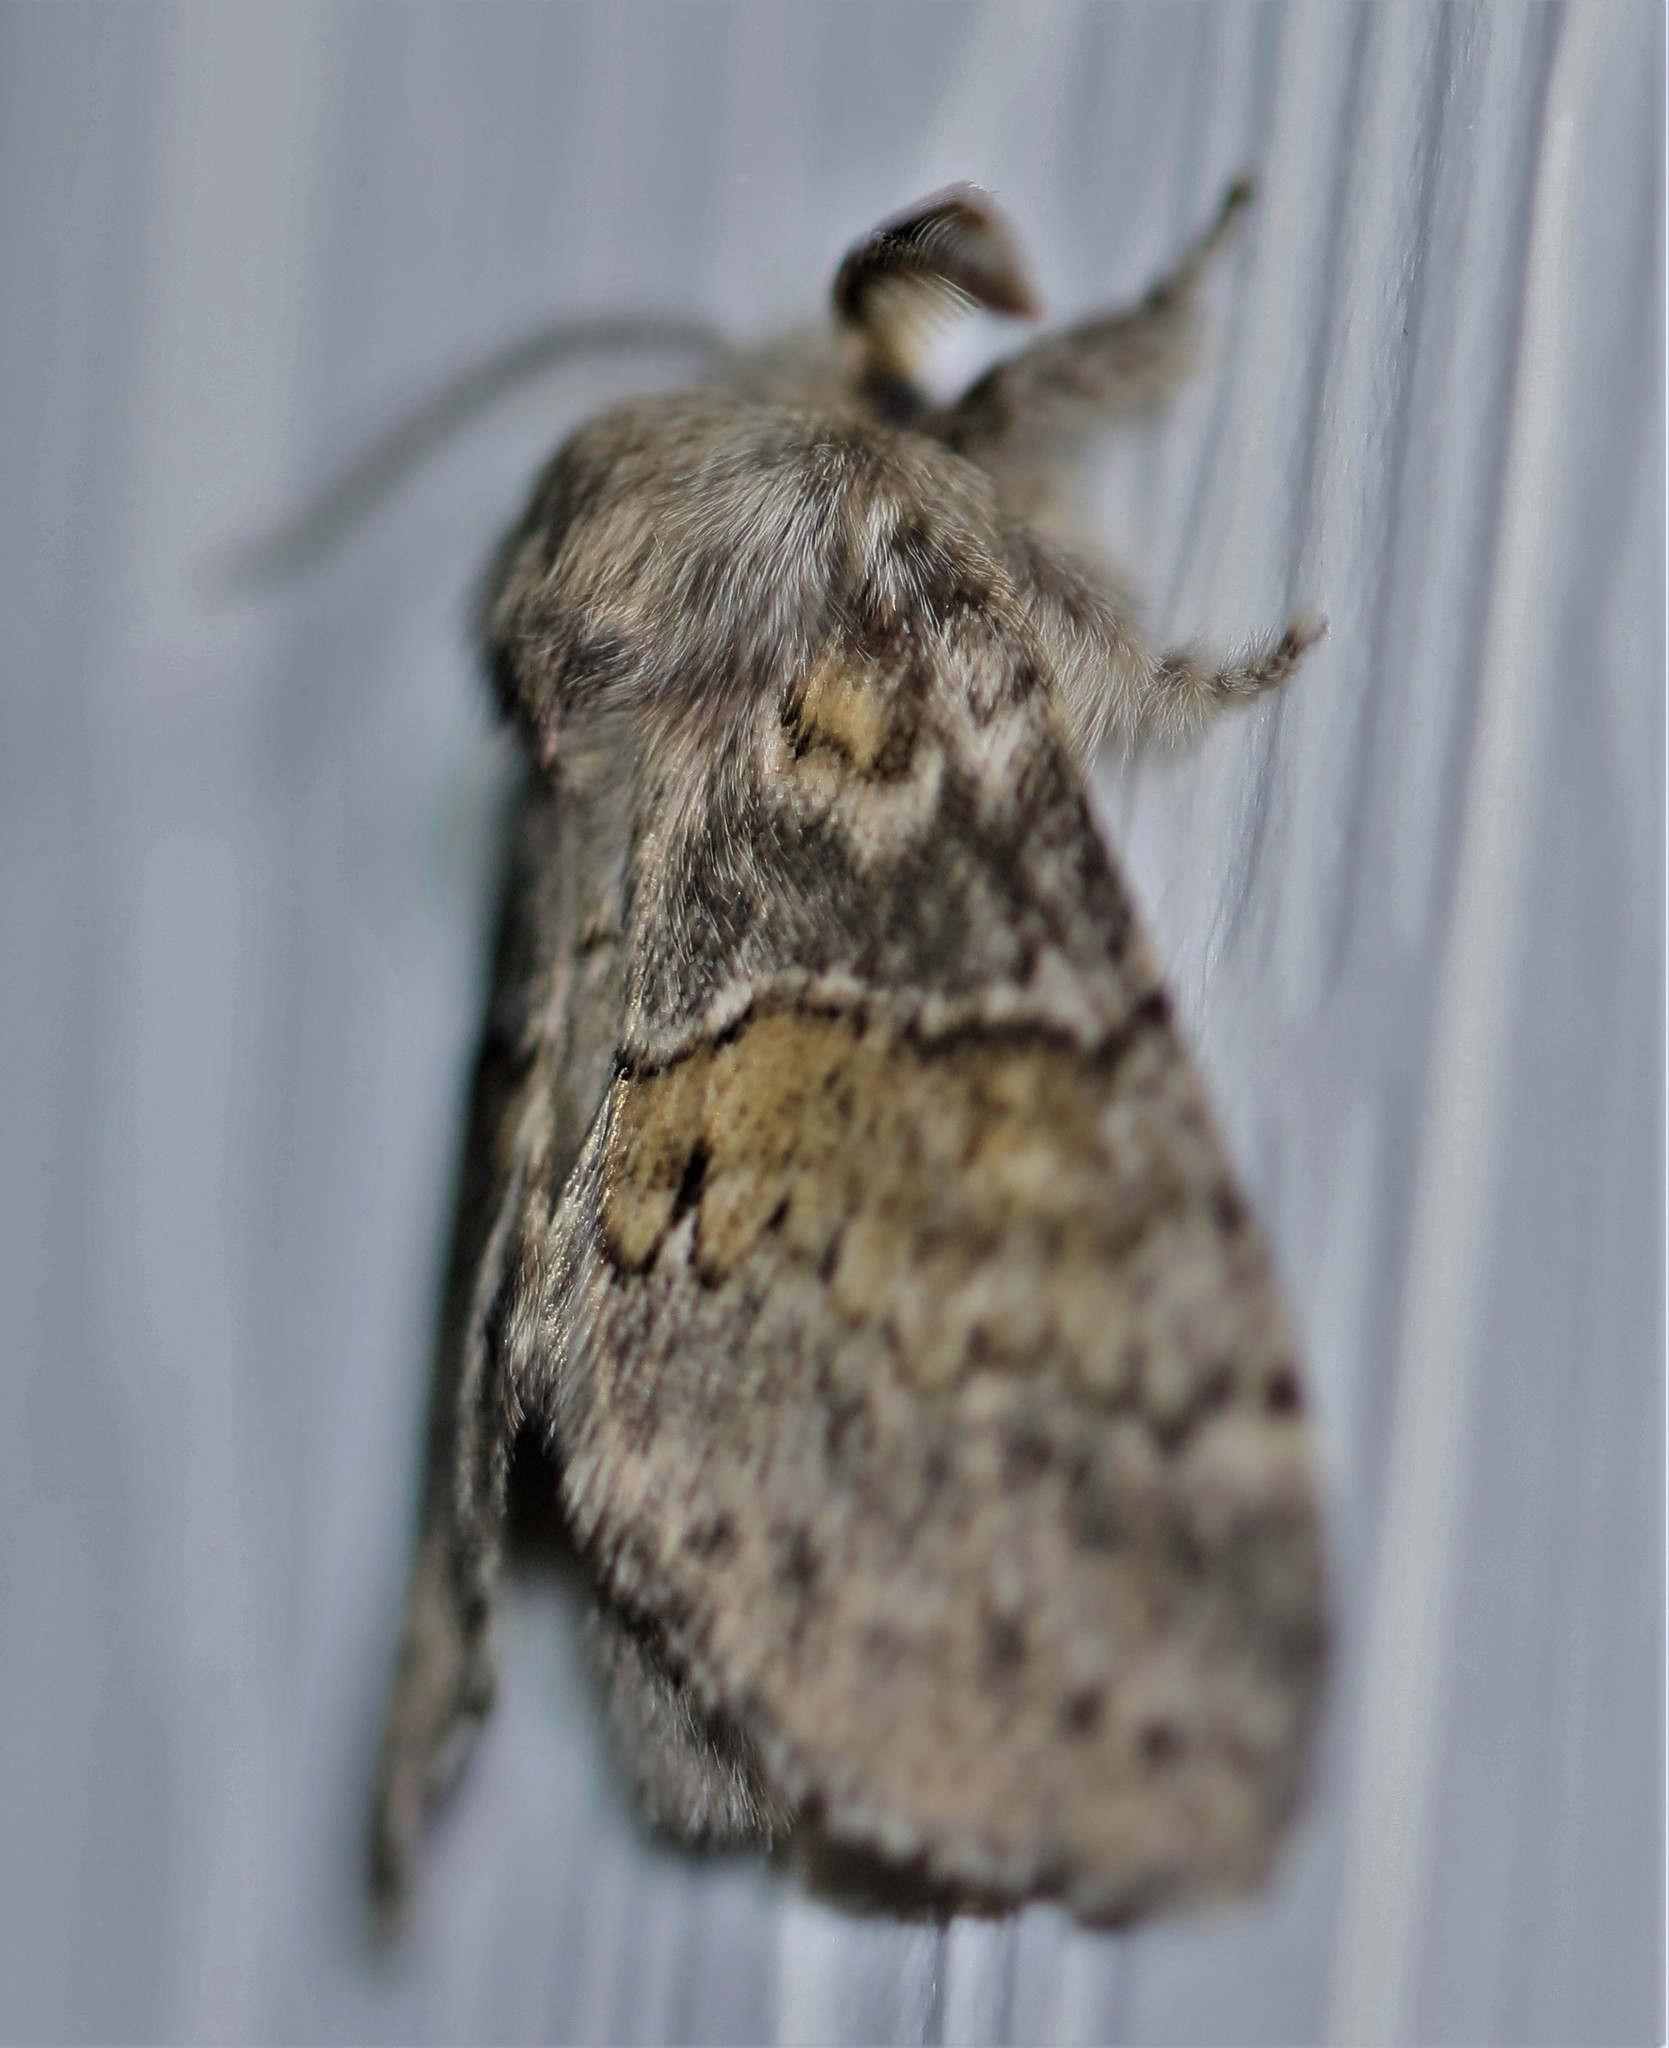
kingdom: Animalia
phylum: Arthropoda
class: Insecta
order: Lepidoptera
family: Notodontidae
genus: Gluphisia
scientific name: Gluphisia septentrionis
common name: Common gluphisia
